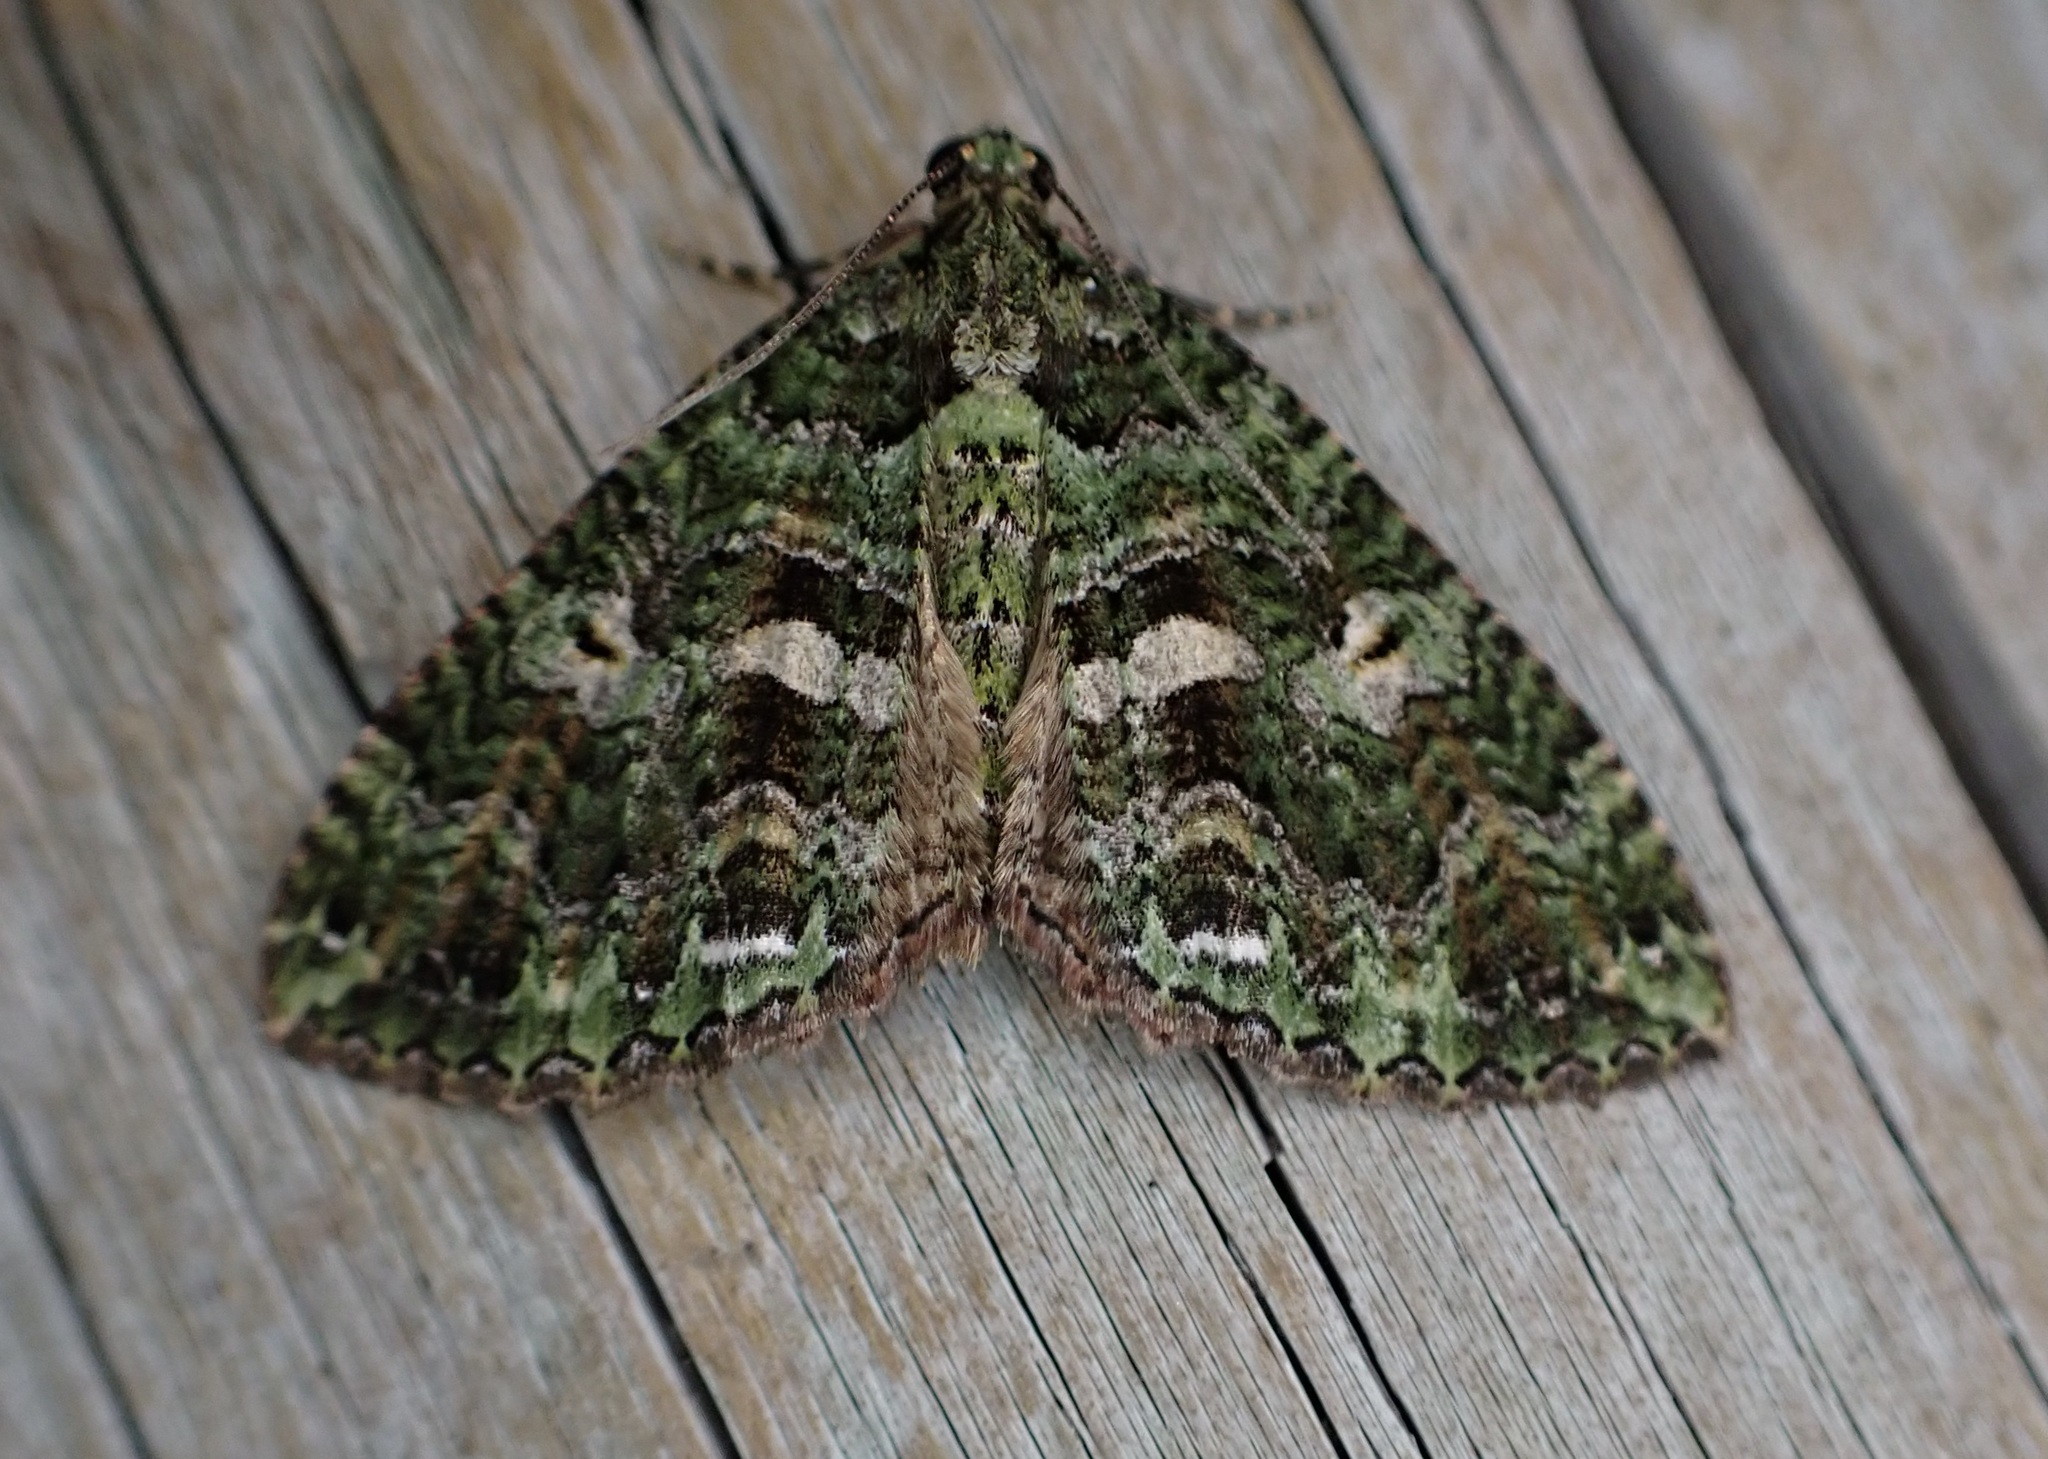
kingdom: Animalia
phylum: Arthropoda
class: Insecta
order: Lepidoptera
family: Geometridae
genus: Austrocidaria
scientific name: Austrocidaria similata
